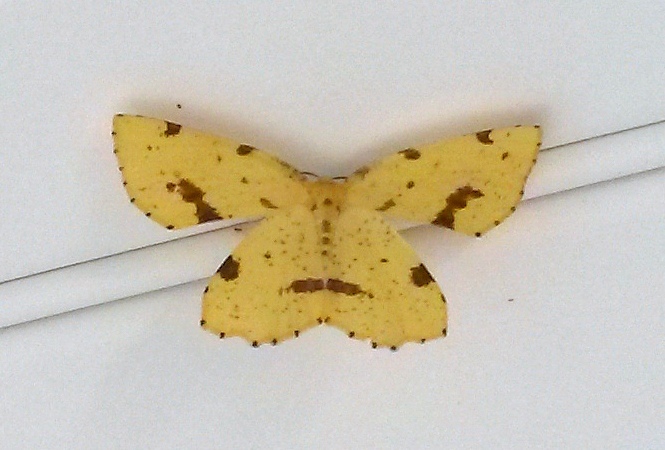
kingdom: Animalia
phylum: Arthropoda
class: Insecta
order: Lepidoptera
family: Geometridae
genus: Xanthotype
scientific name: Xanthotype
